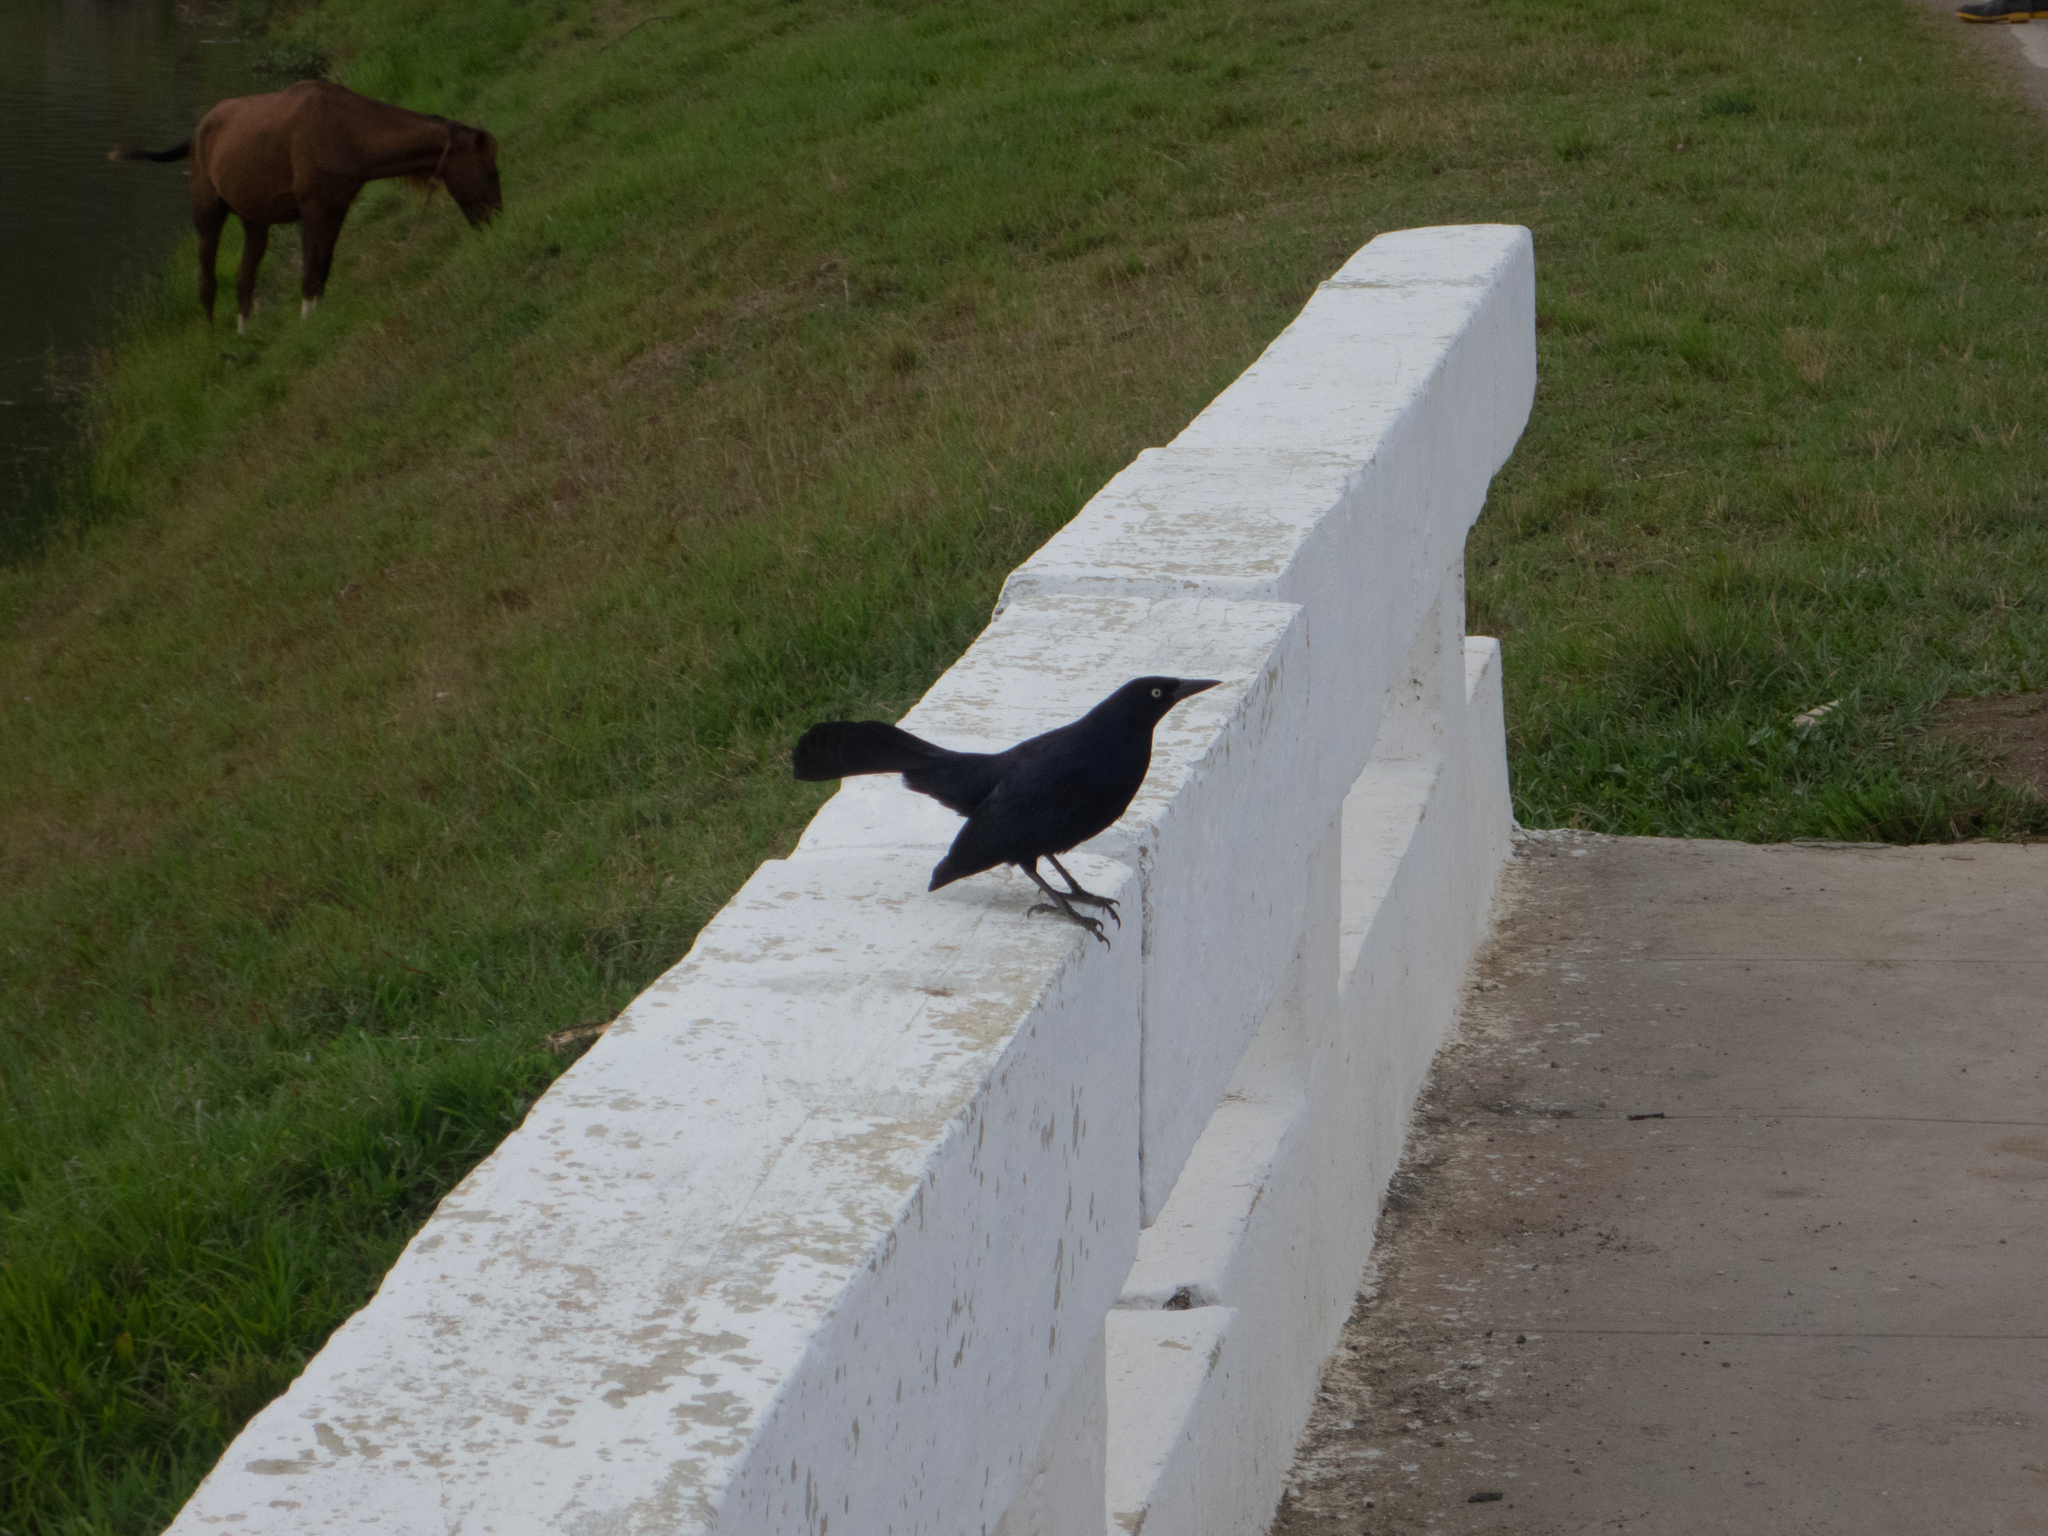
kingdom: Animalia
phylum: Chordata
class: Aves
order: Passeriformes
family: Icteridae
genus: Quiscalus
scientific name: Quiscalus niger
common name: Greater antillean grackle
